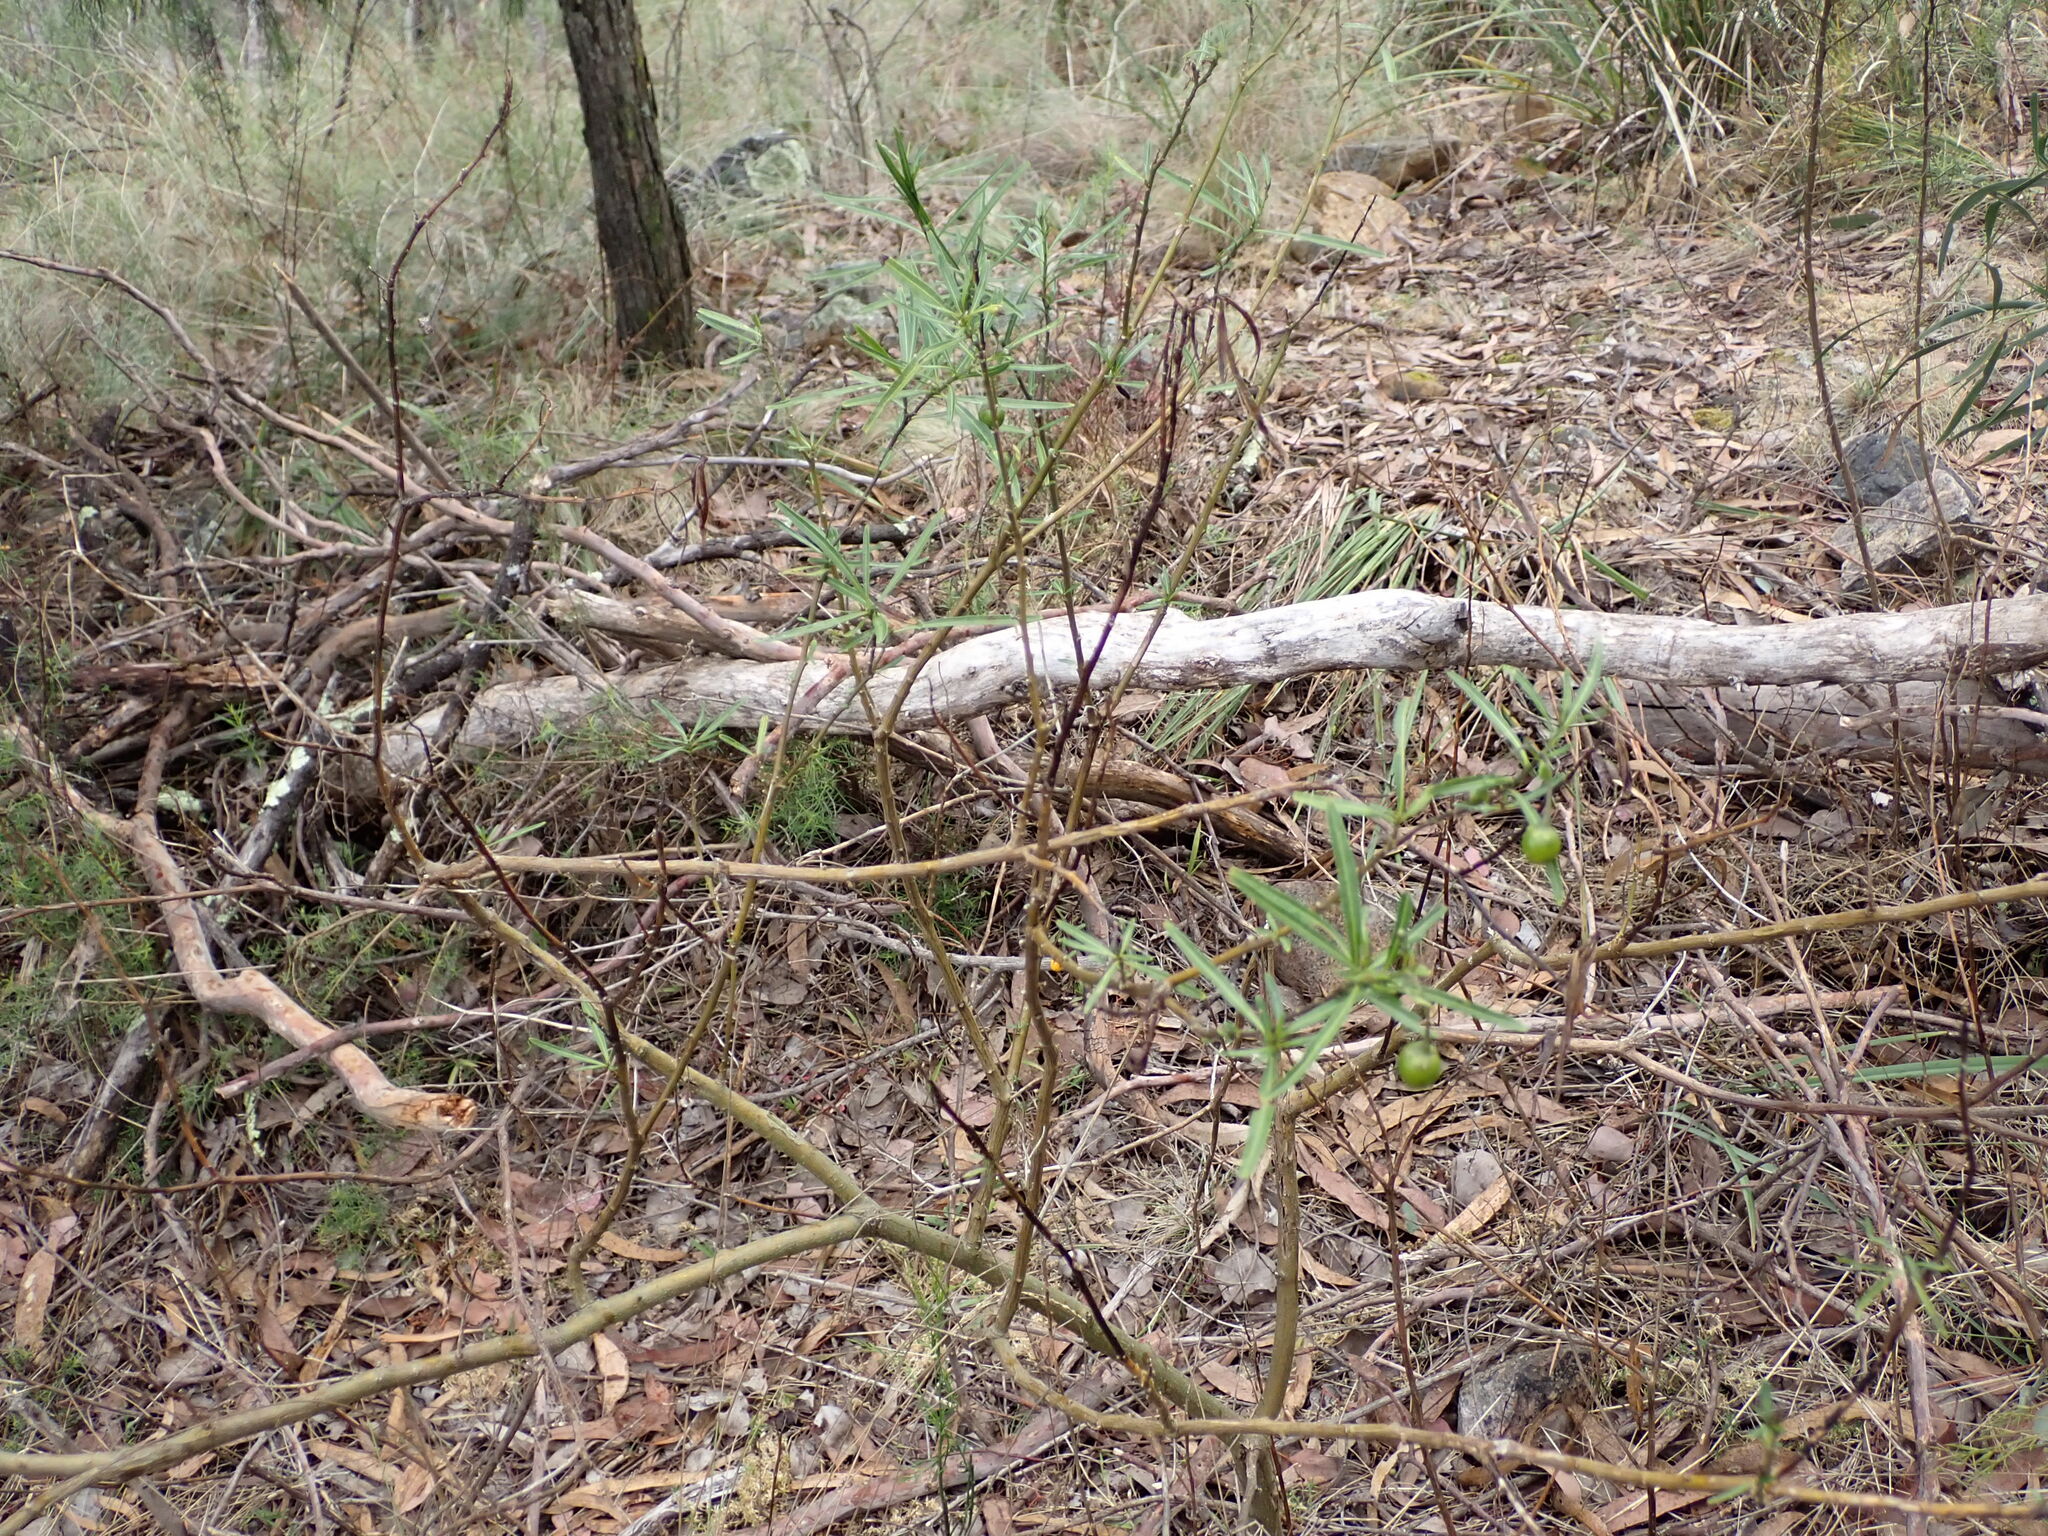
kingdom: Plantae
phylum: Tracheophyta
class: Magnoliopsida
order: Solanales
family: Solanaceae
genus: Solanum
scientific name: Solanum linearifolium
